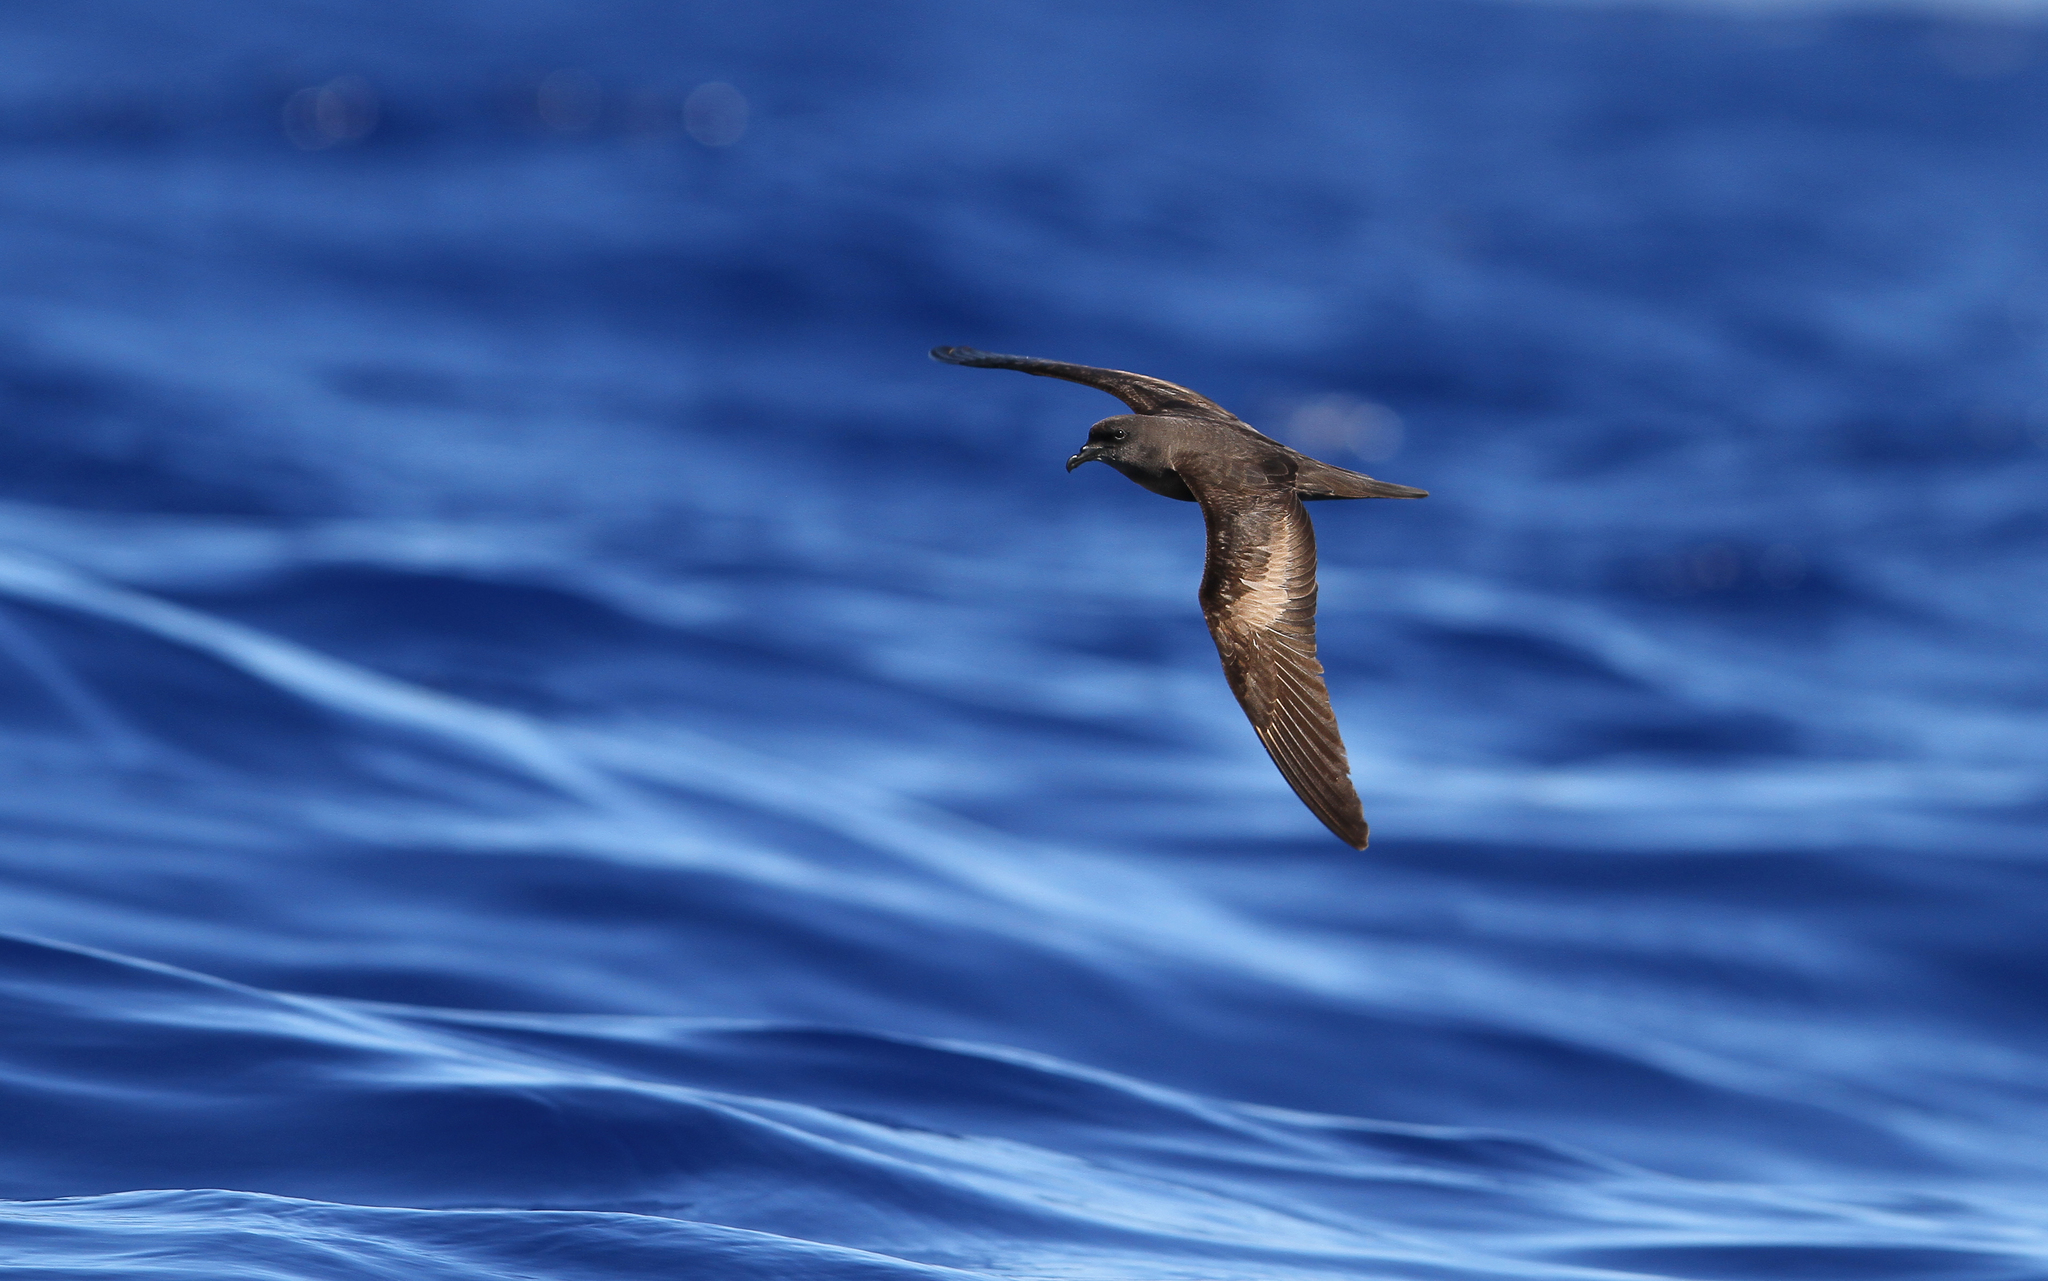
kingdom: Animalia
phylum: Chordata
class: Aves
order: Procellariiformes
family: Procellariidae
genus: Bulweria
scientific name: Bulweria bulwerii
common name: Bulwer's petrel
